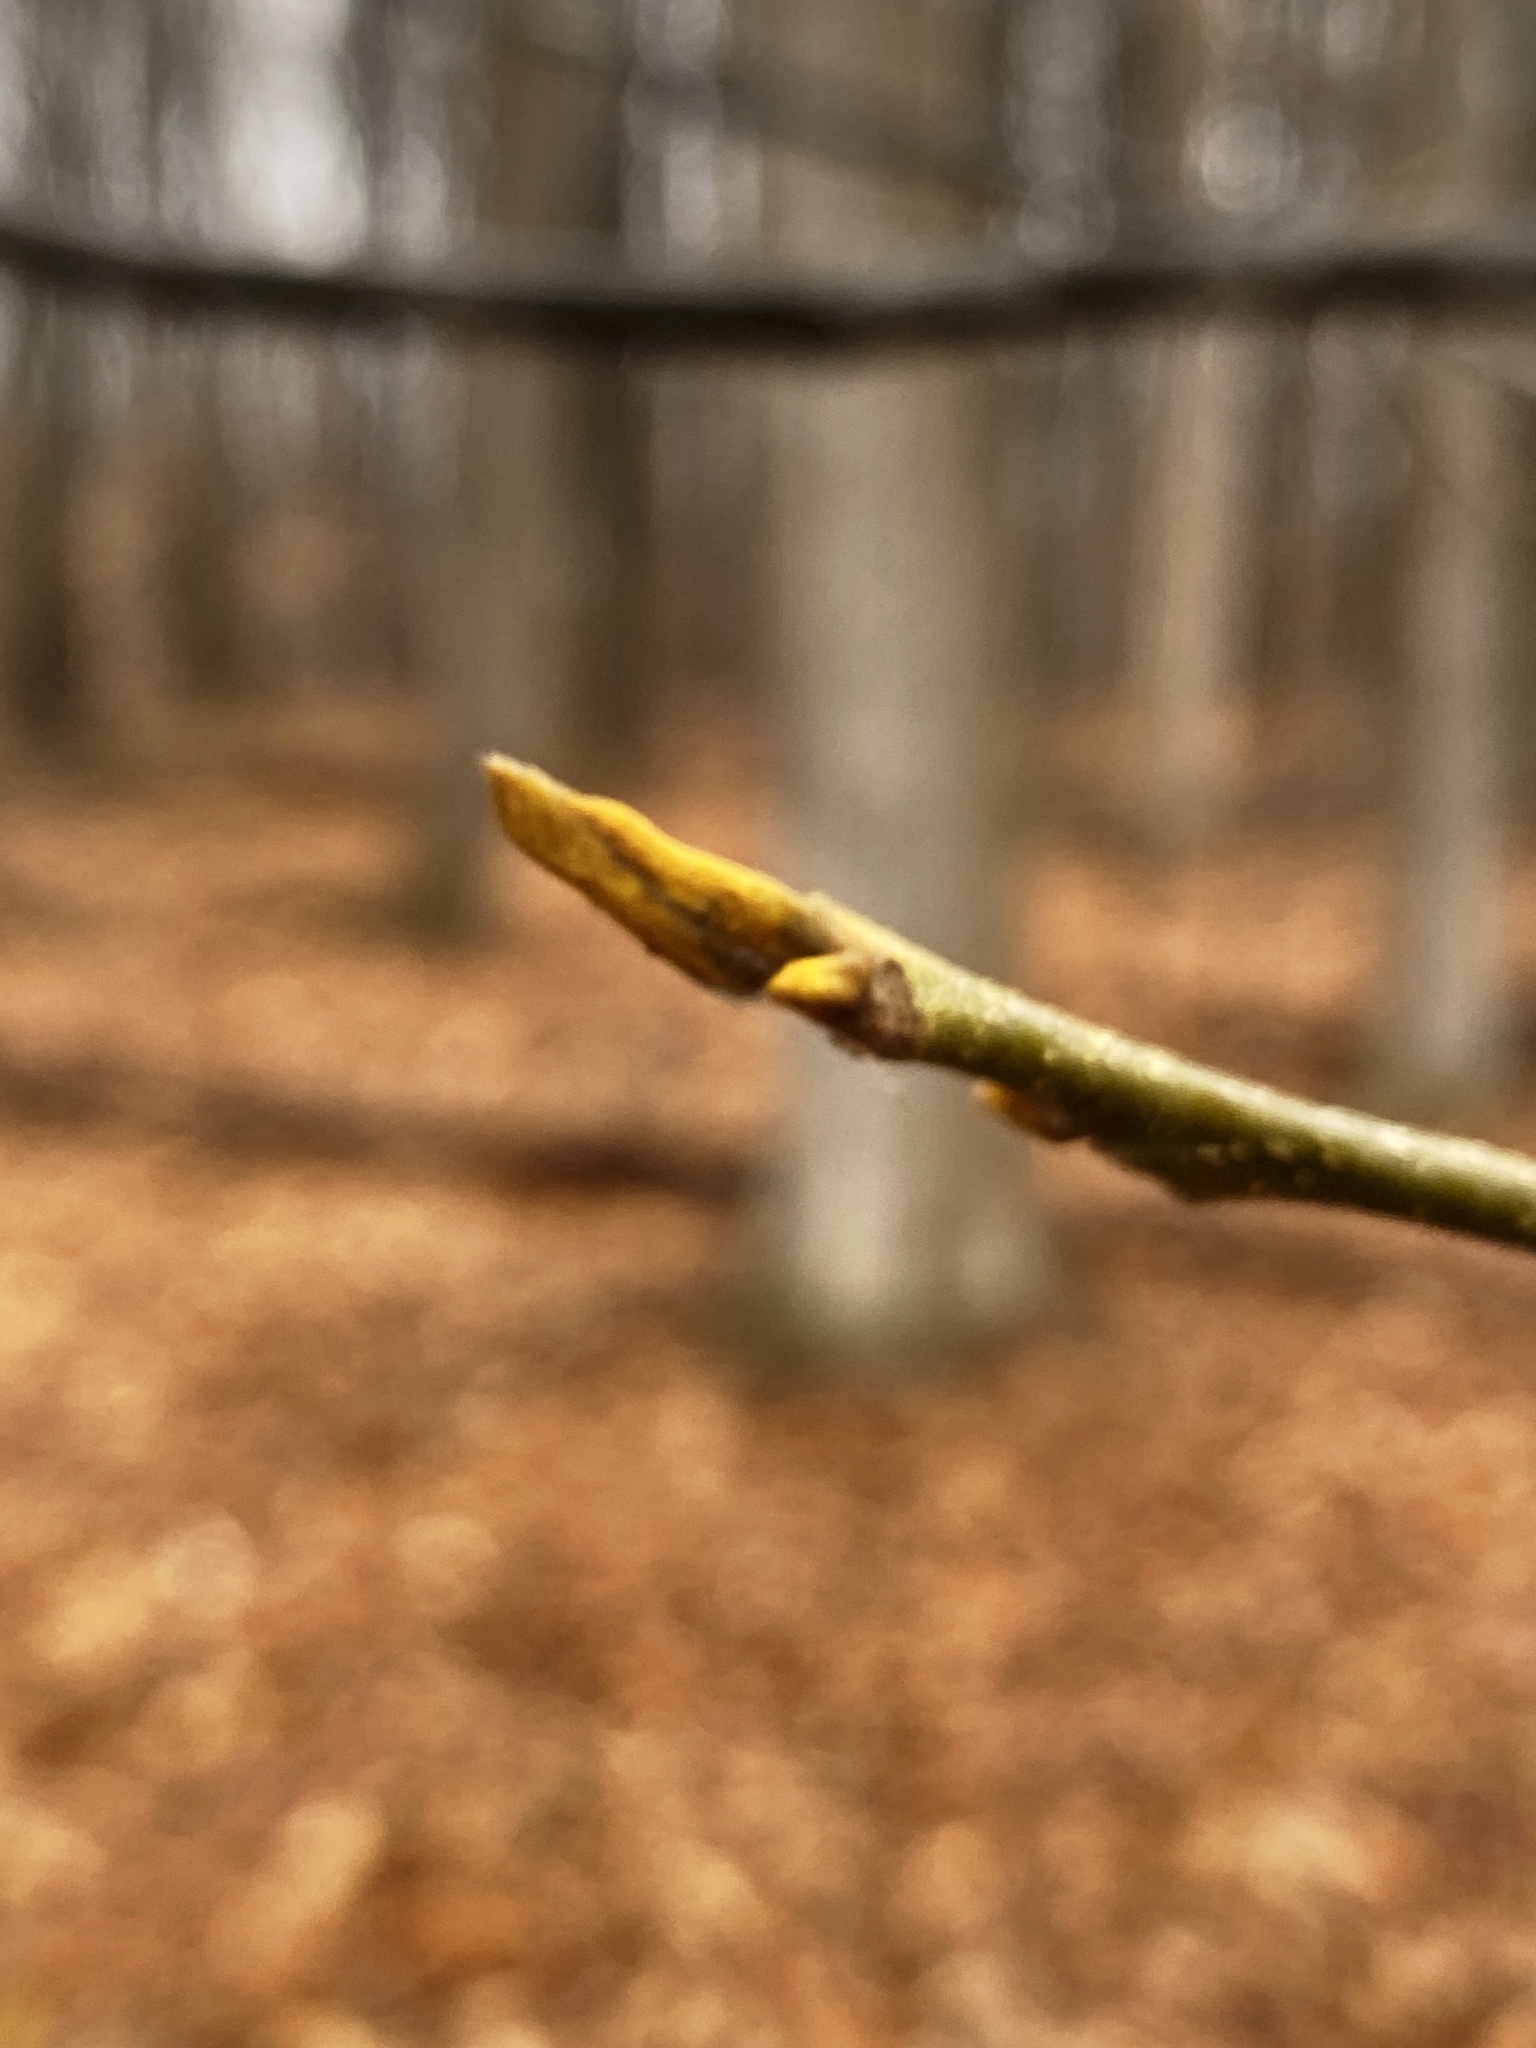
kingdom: Plantae
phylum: Tracheophyta
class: Magnoliopsida
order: Fagales
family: Juglandaceae
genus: Carya
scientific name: Carya cordiformis
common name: Bitternut hickory
